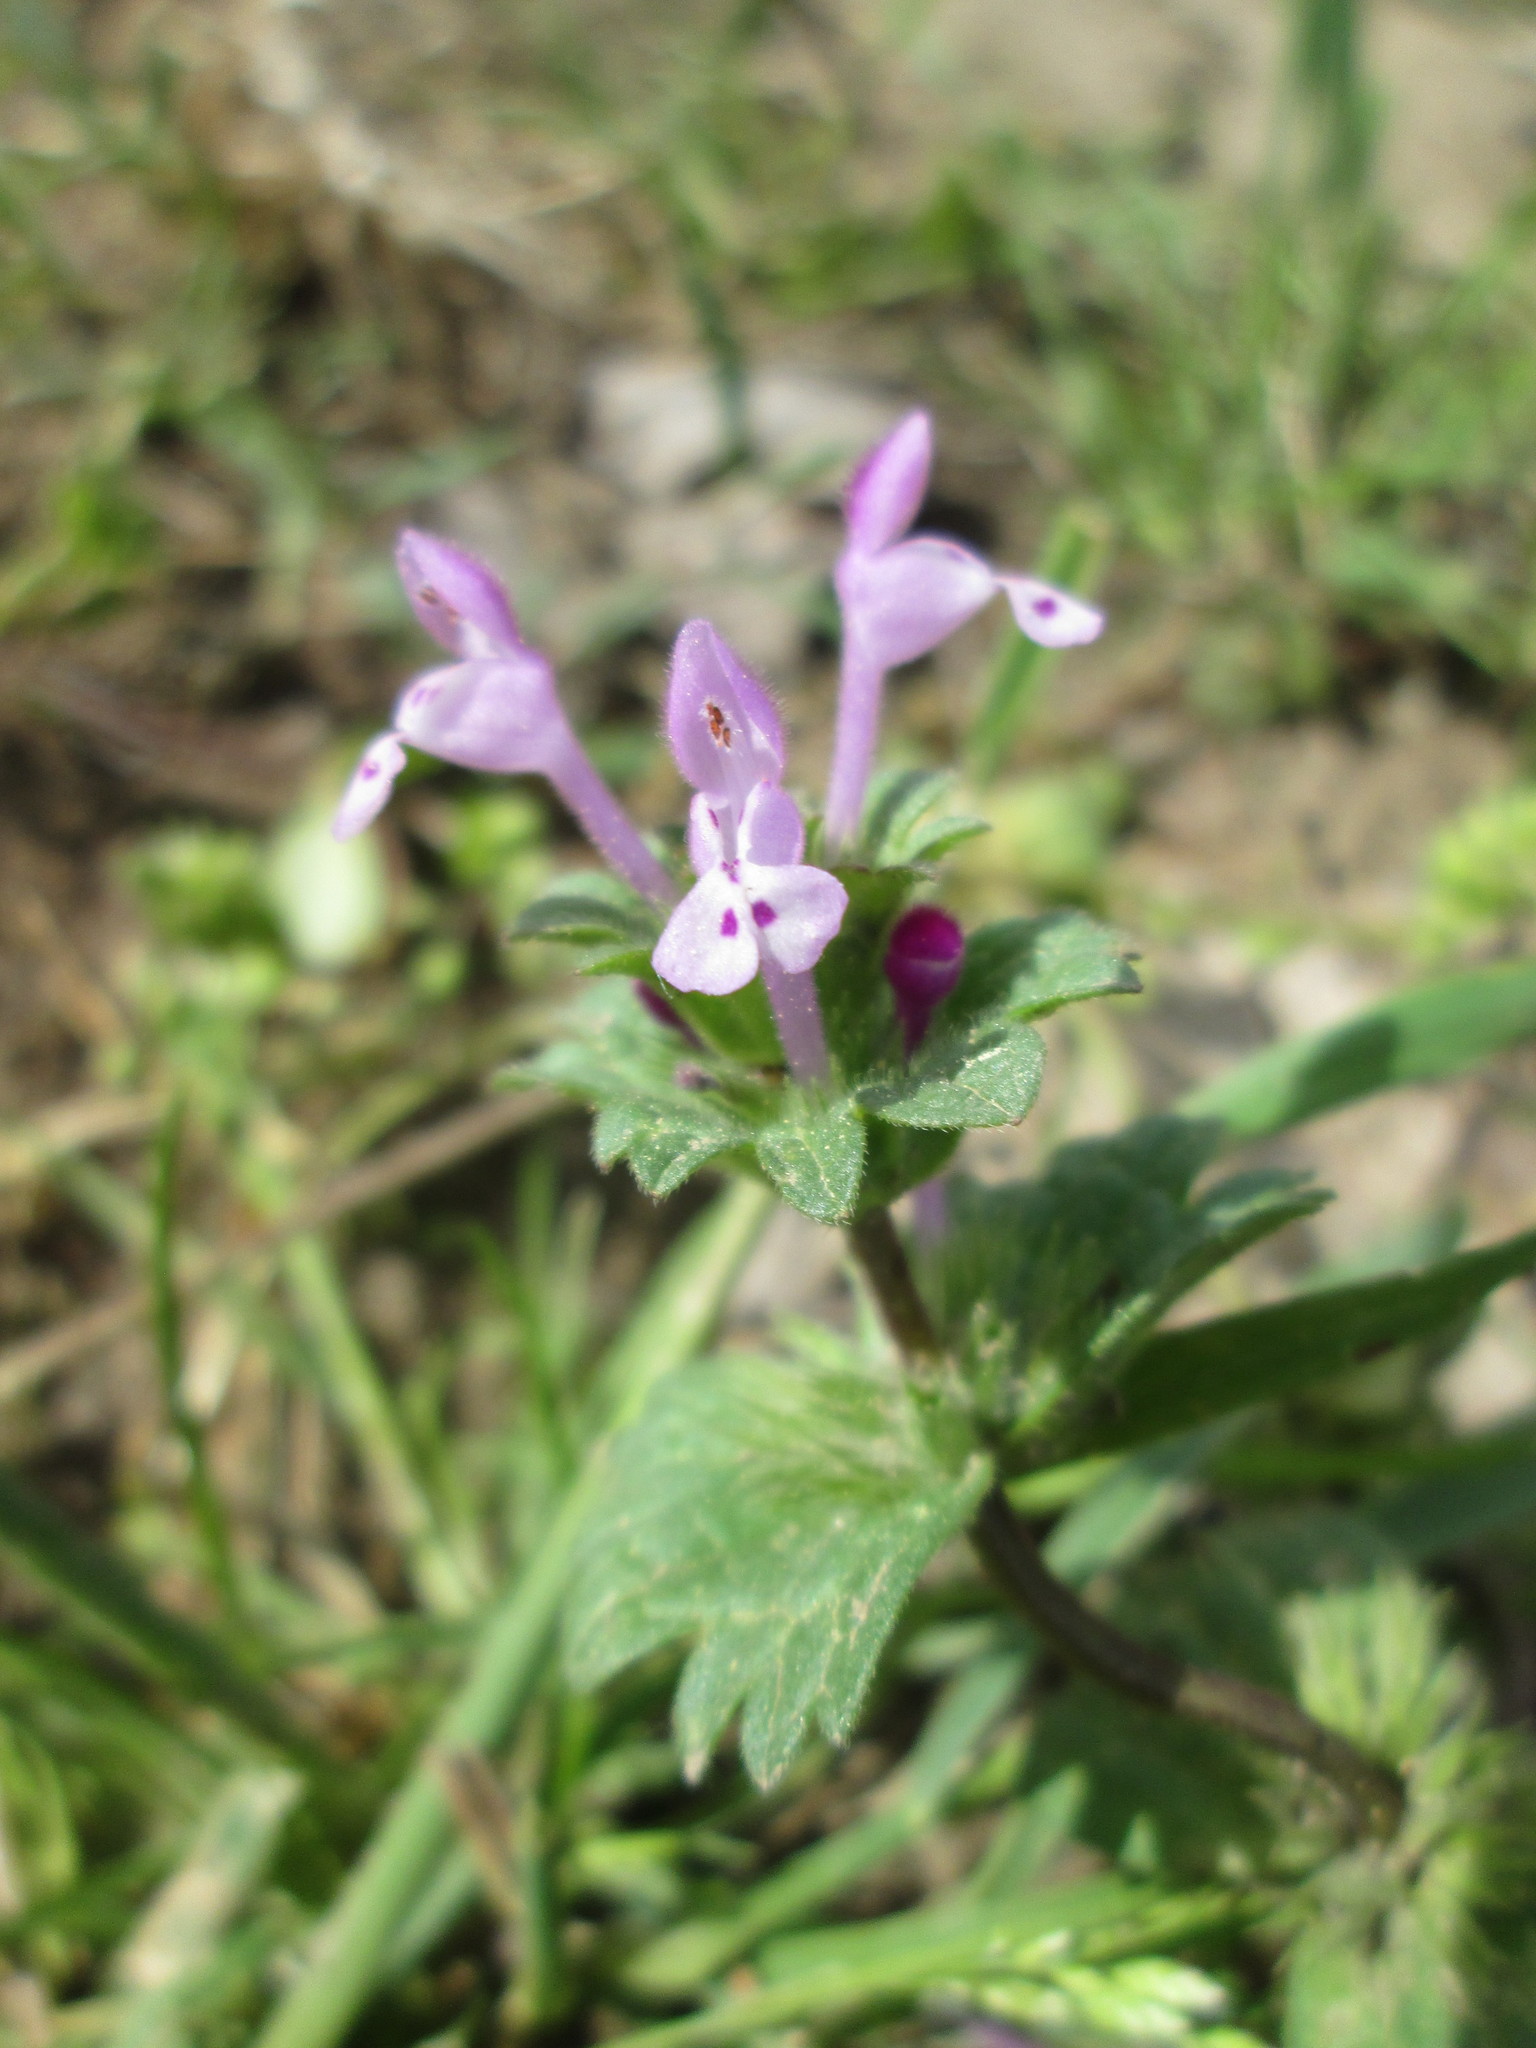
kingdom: Plantae
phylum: Tracheophyta
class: Magnoliopsida
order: Lamiales
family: Lamiaceae
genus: Lamium
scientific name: Lamium amplexicaule
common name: Henbit dead-nettle
